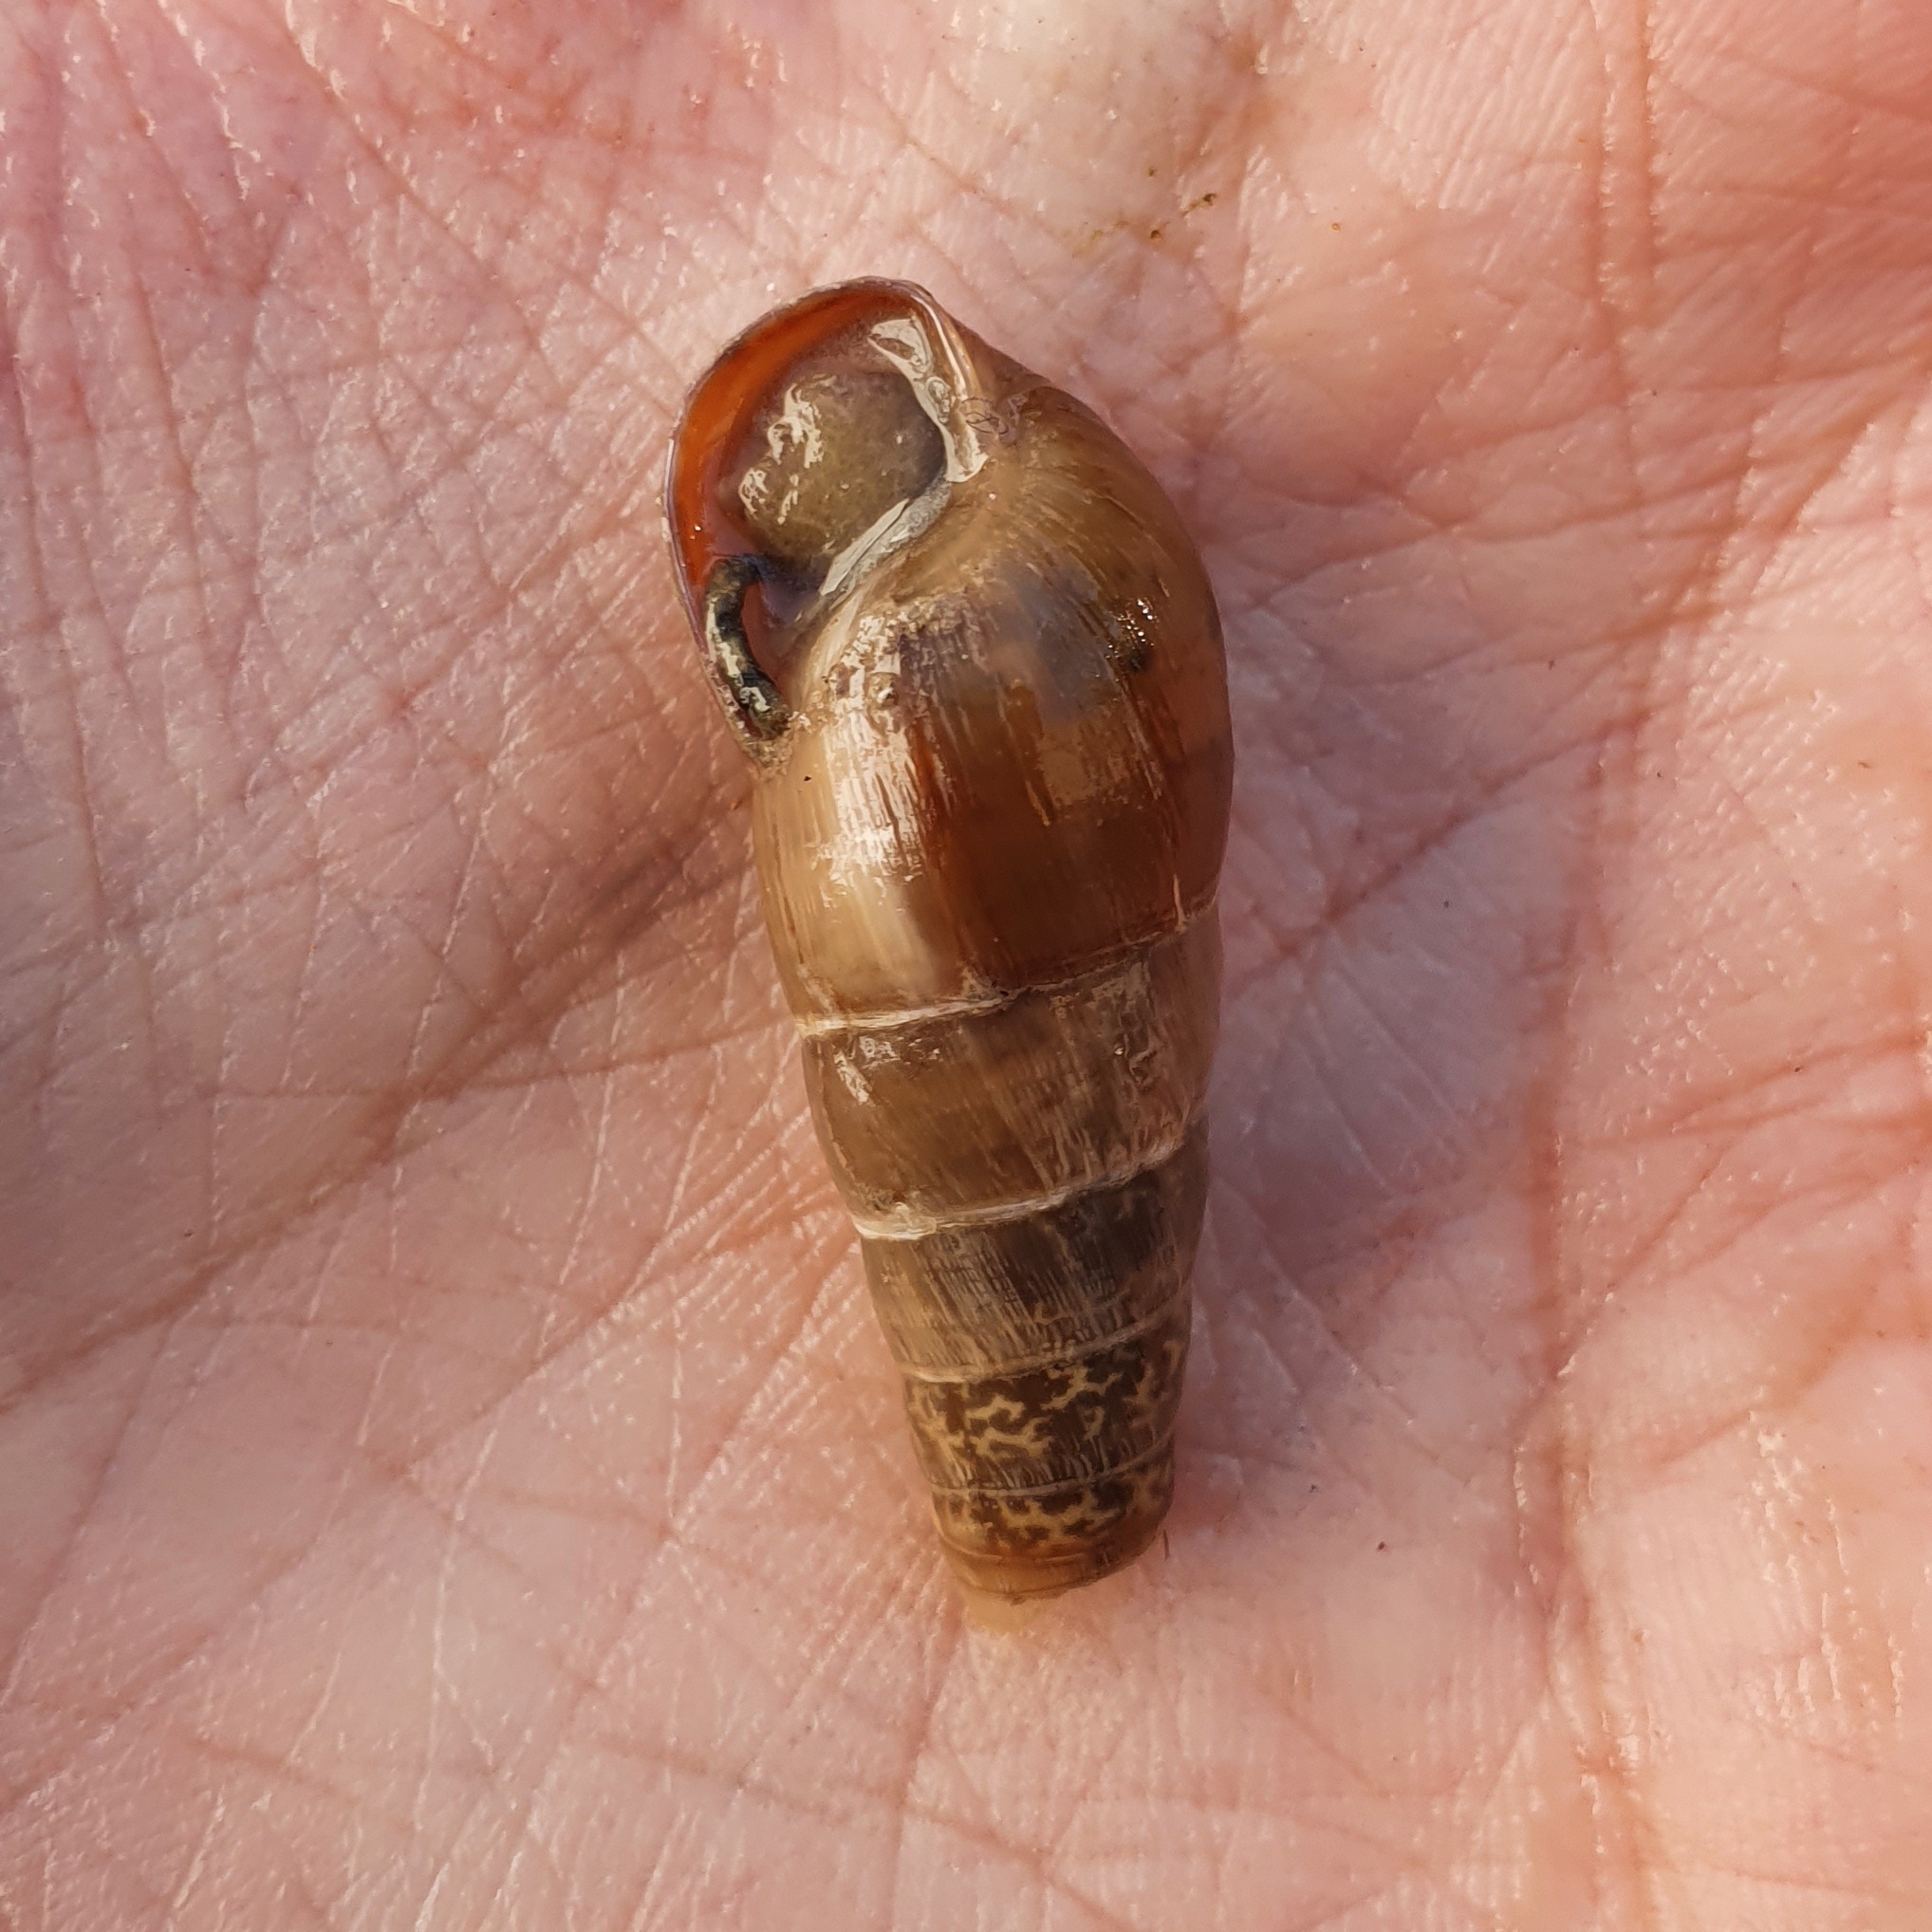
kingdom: Animalia
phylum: Mollusca
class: Gastropoda
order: Stylommatophora
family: Achatinidae
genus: Rumina
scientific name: Rumina decollata
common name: Decollate snail
